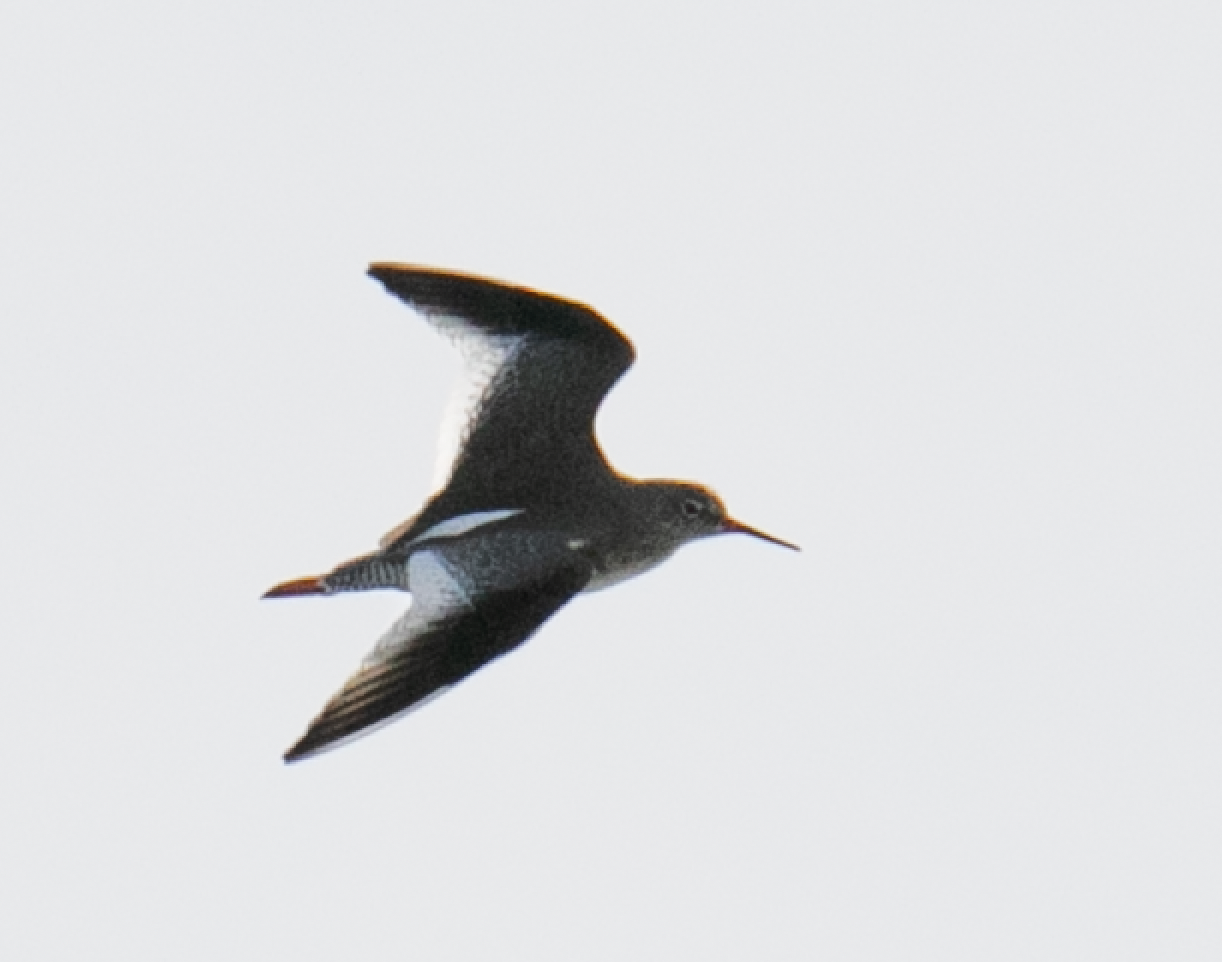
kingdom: Animalia
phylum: Chordata
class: Aves
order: Charadriiformes
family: Scolopacidae
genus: Tringa
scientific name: Tringa totanus
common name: Common redshank
